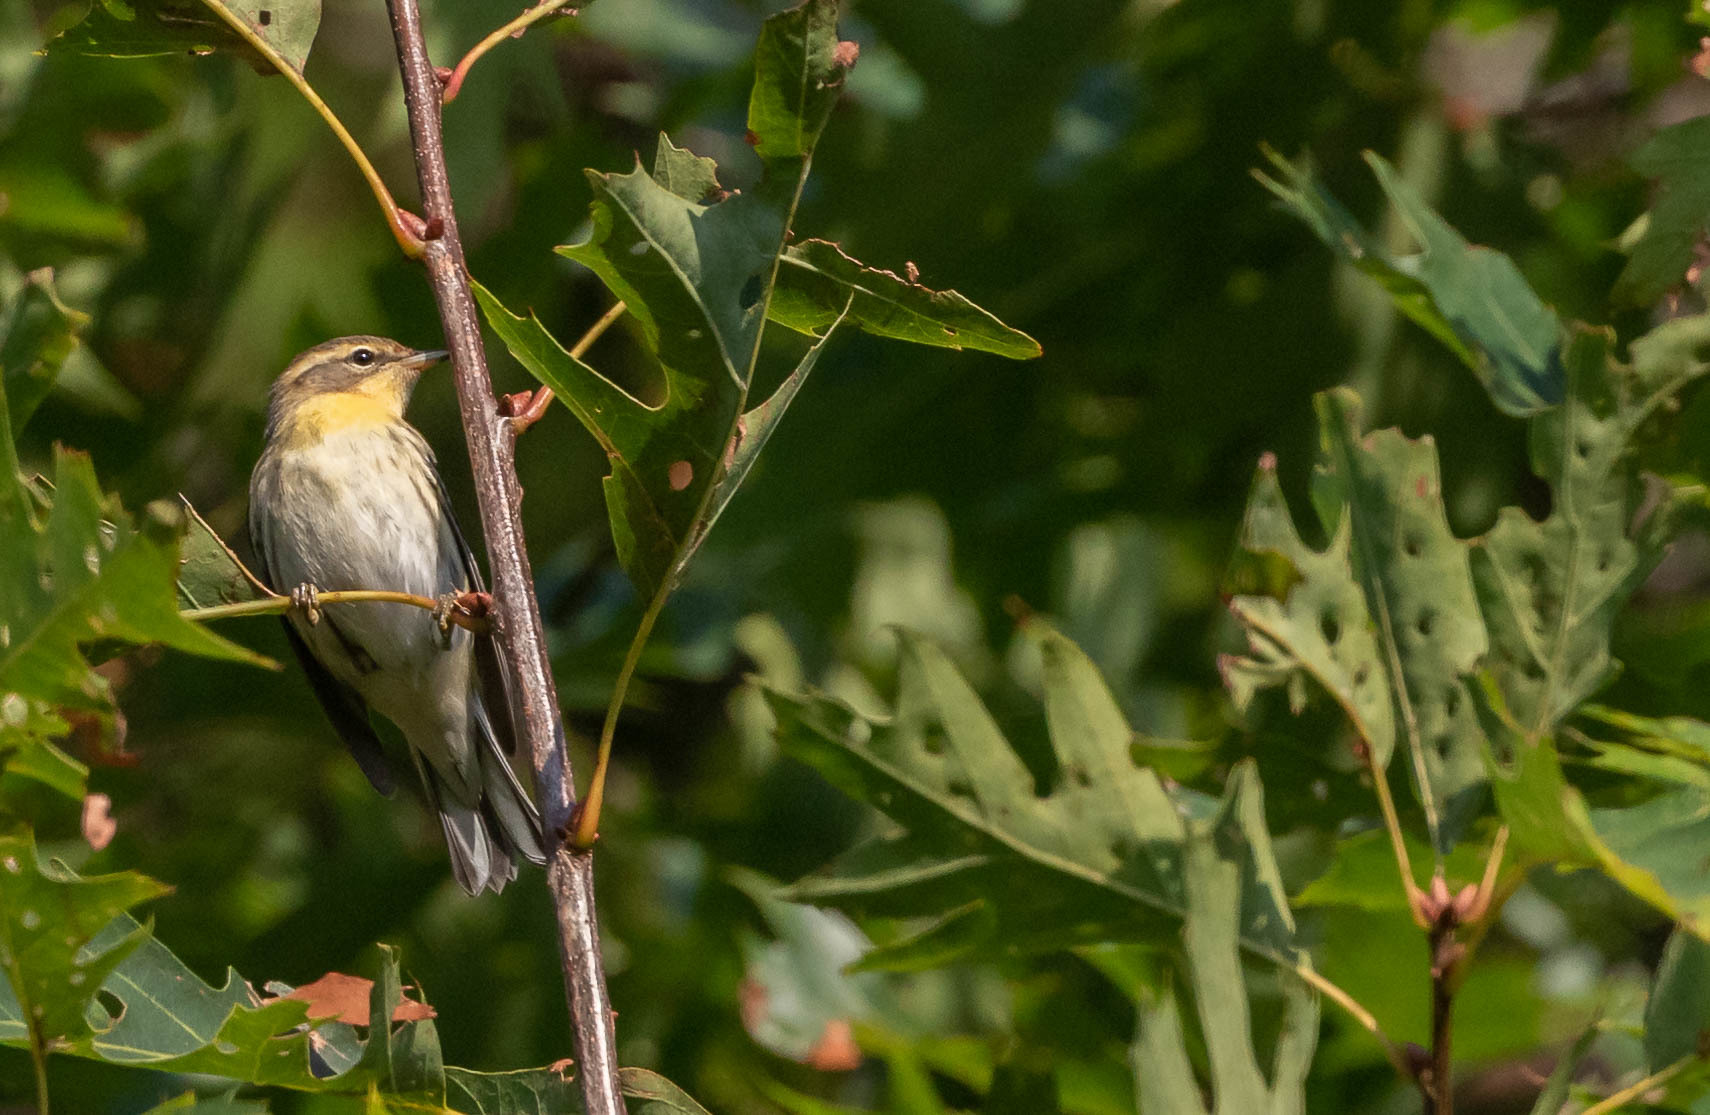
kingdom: Animalia
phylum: Chordata
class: Aves
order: Passeriformes
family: Parulidae
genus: Setophaga
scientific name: Setophaga fusca
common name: Blackburnian warbler
